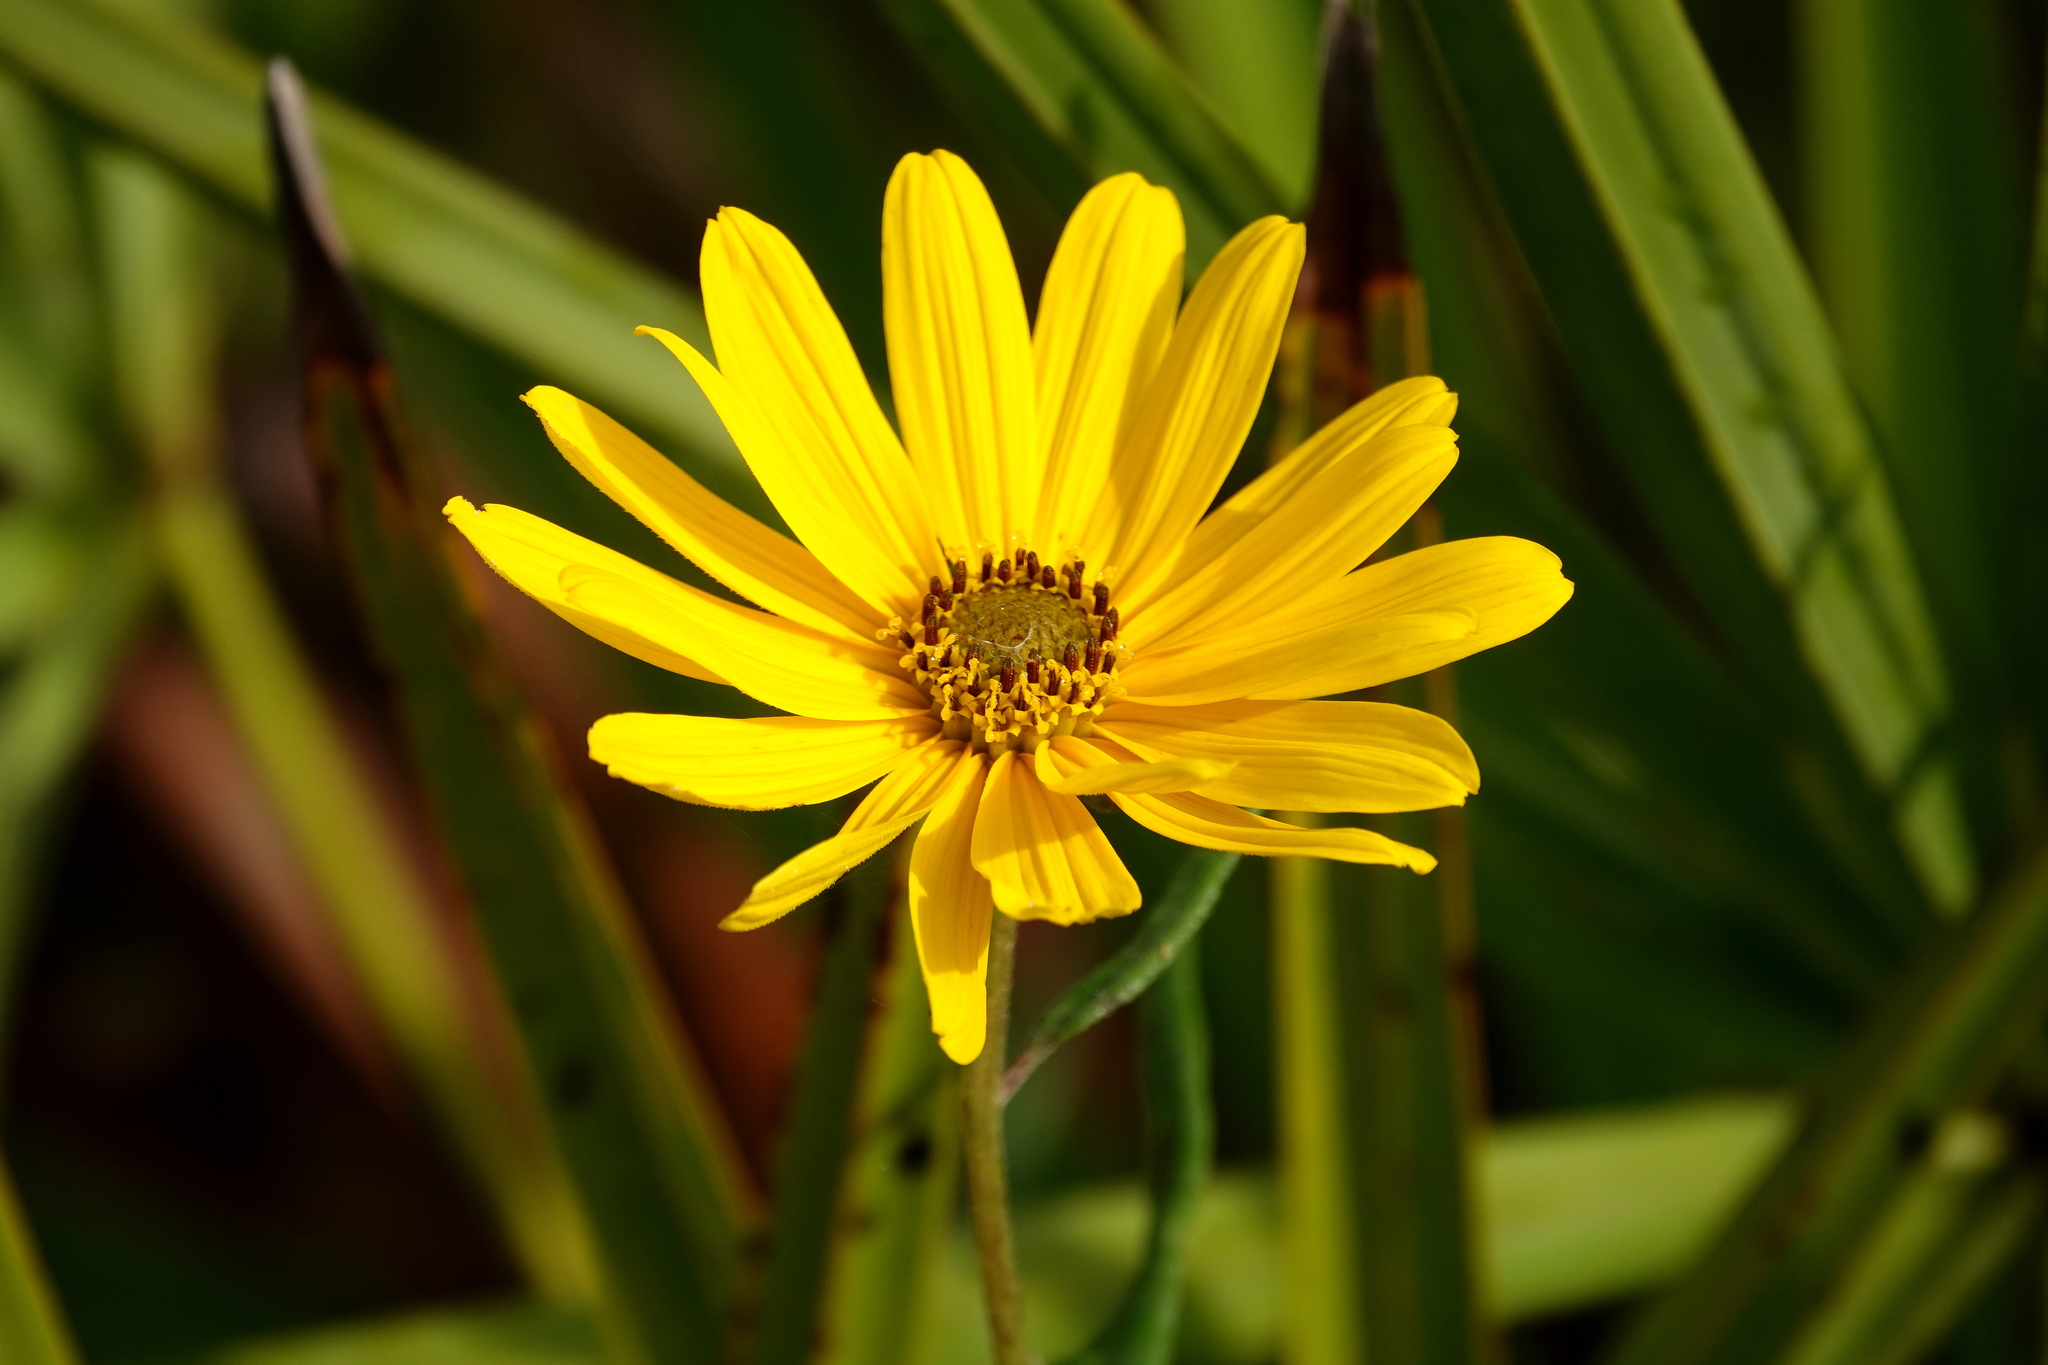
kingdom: Plantae
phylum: Tracheophyta
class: Magnoliopsida
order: Asterales
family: Asteraceae
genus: Helianthus
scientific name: Helianthus angustifolius
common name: Swamp sunflower
